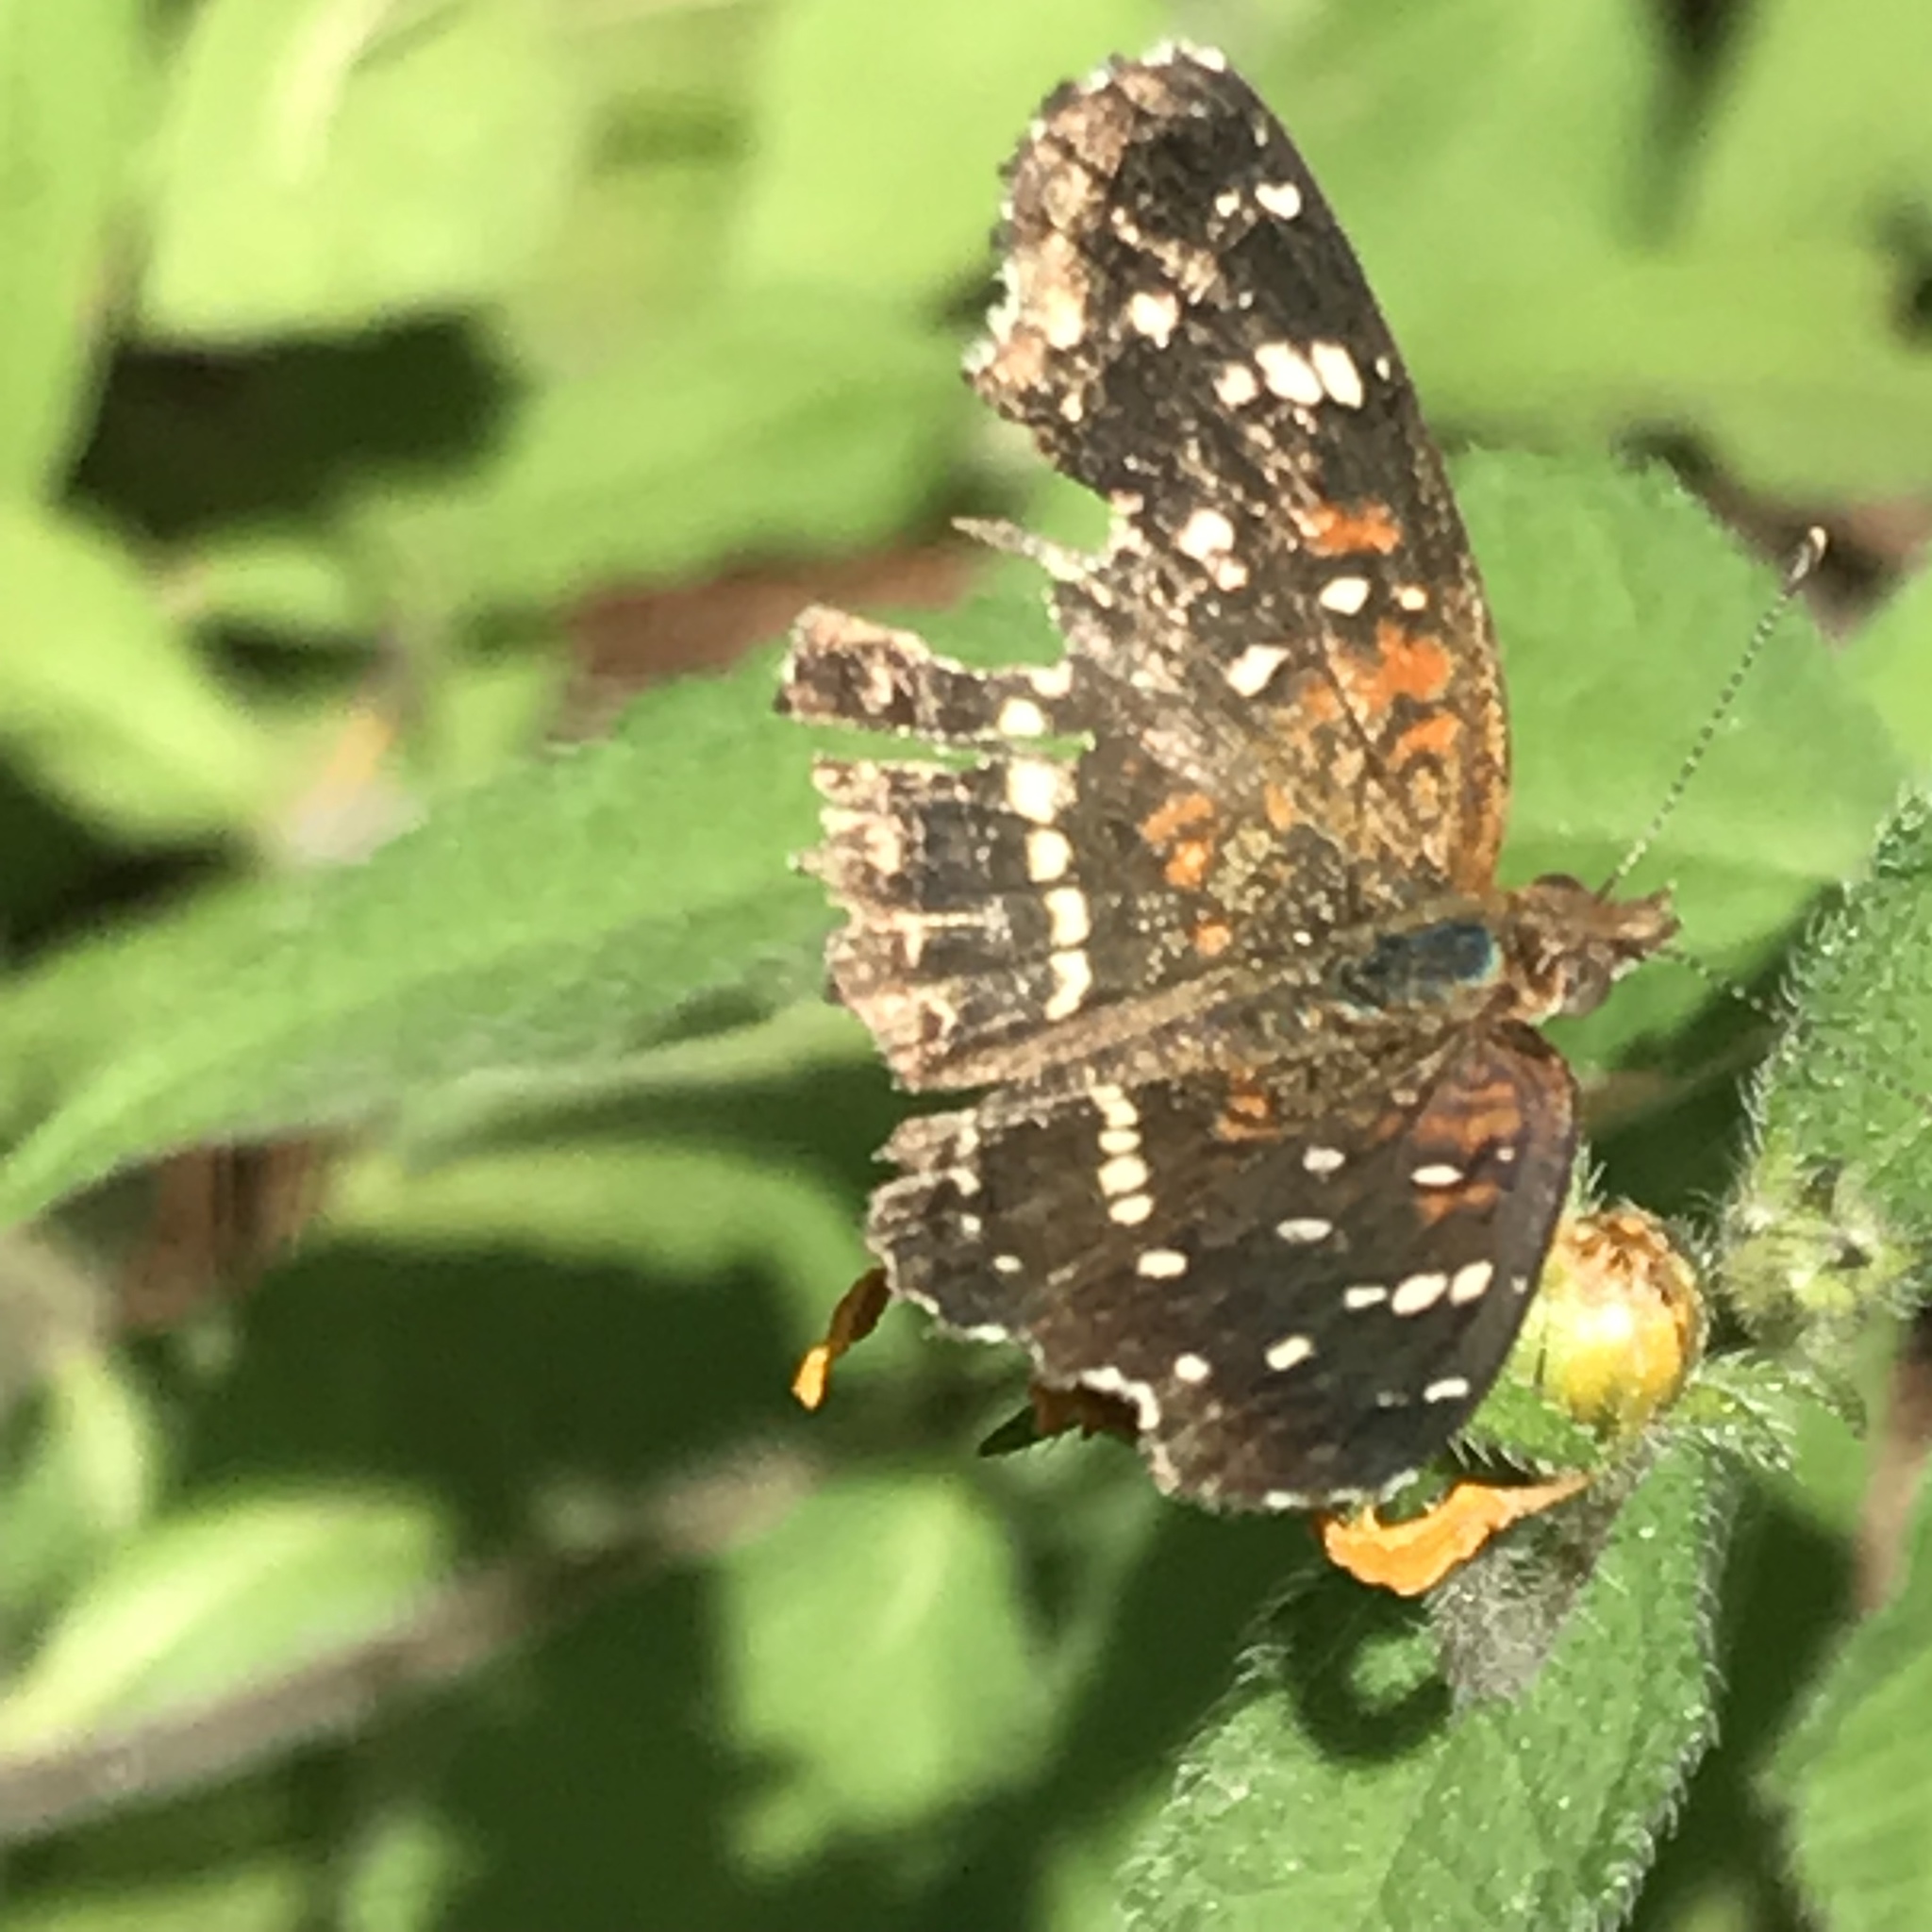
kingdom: Animalia
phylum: Arthropoda
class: Insecta
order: Lepidoptera
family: Nymphalidae
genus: Anthanassa
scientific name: Anthanassa texana
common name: Texan crescent
